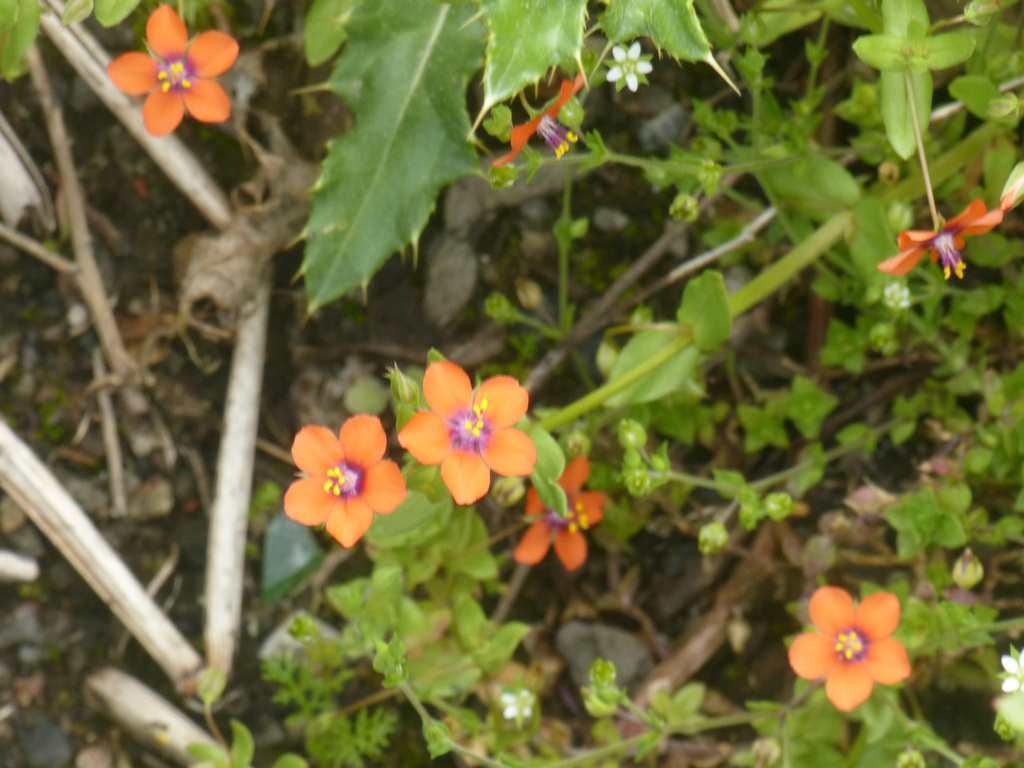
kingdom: Plantae
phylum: Tracheophyta
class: Magnoliopsida
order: Ericales
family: Primulaceae
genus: Lysimachia
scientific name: Lysimachia arvensis
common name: Scarlet pimpernel
